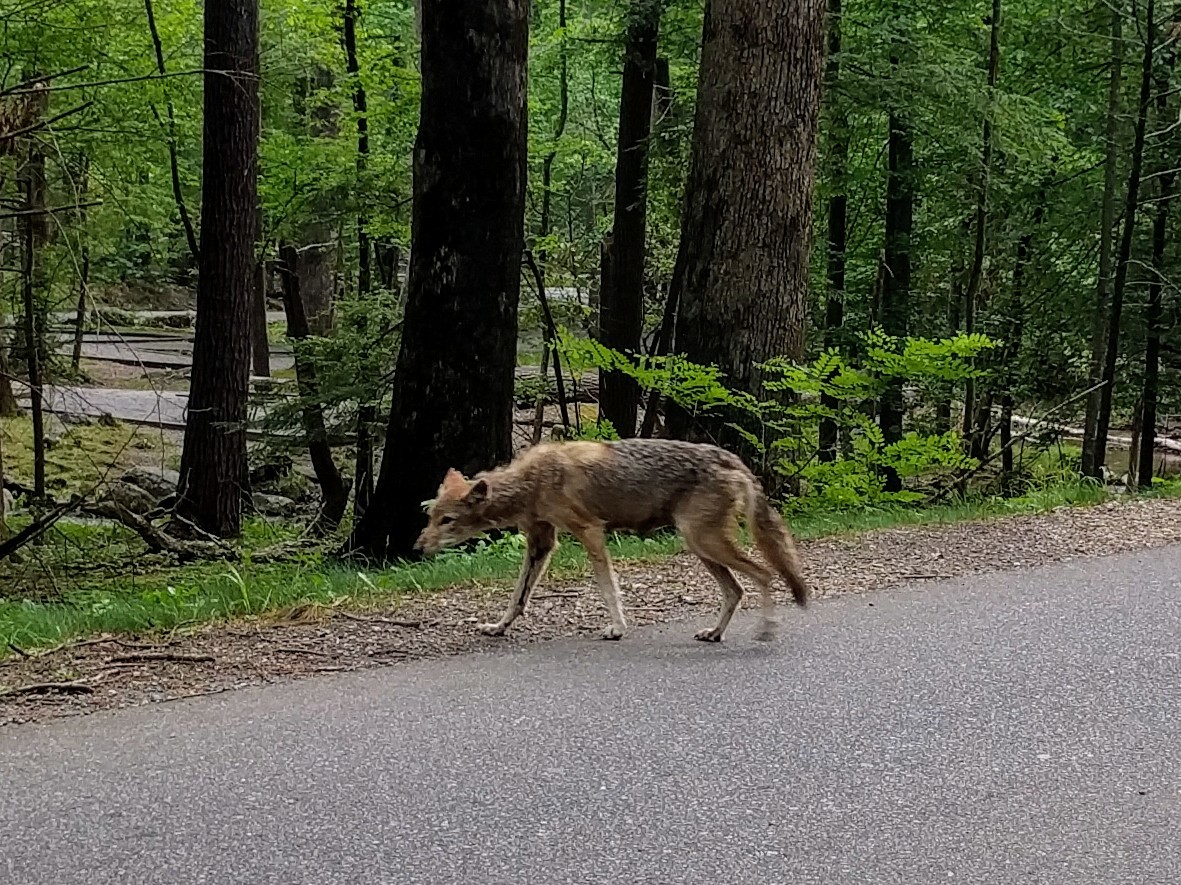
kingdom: Animalia
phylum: Chordata
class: Mammalia
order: Carnivora
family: Canidae
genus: Canis
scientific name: Canis latrans
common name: Coyote
